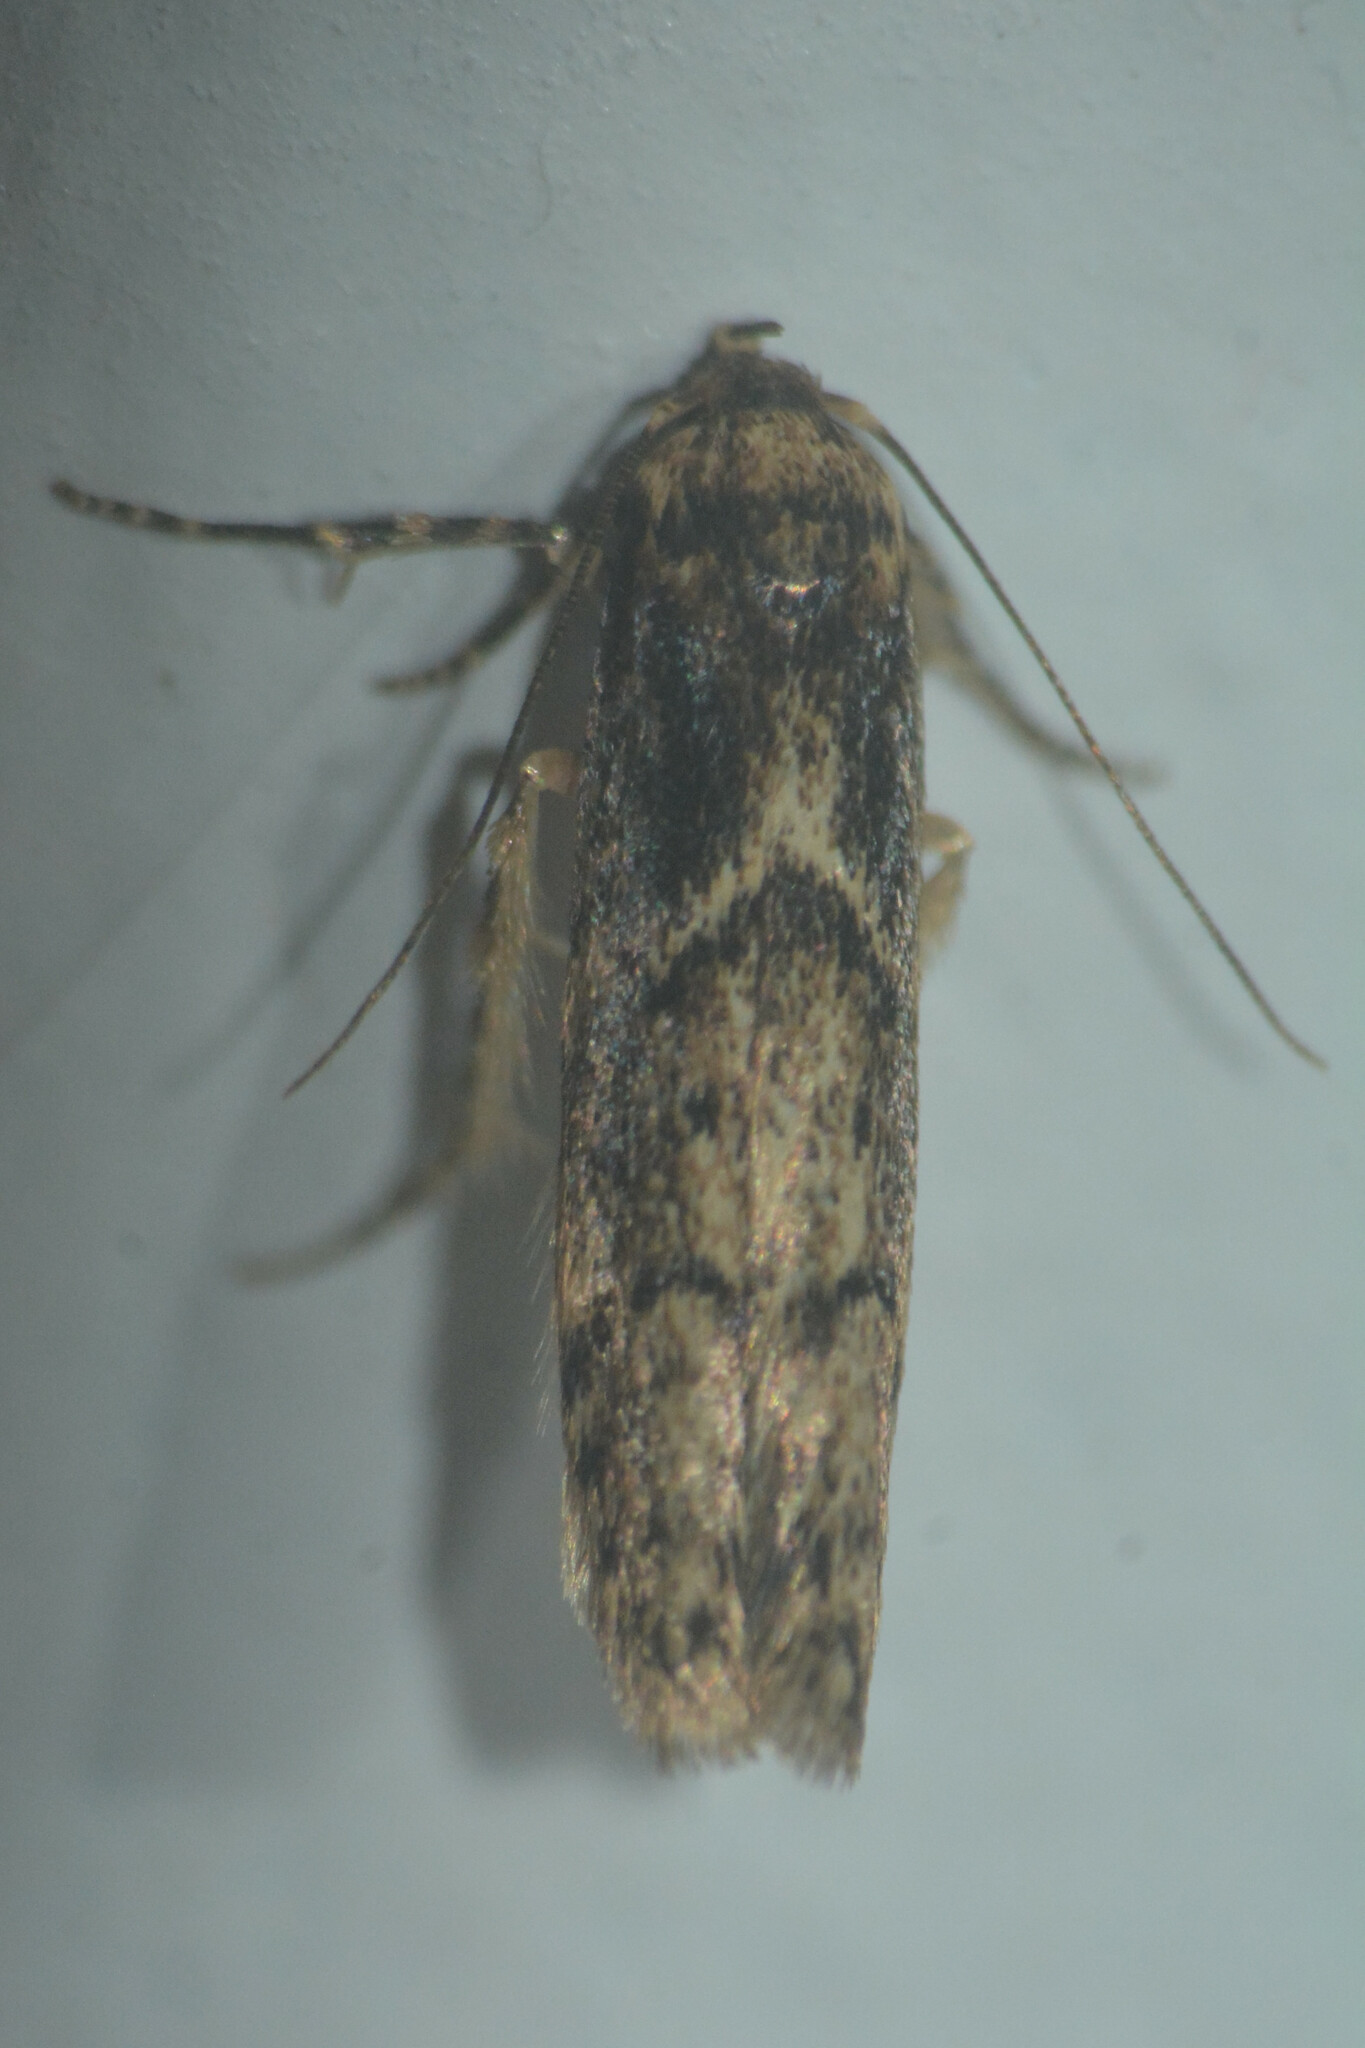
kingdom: Animalia
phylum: Arthropoda
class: Insecta
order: Lepidoptera
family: Blastobasidae
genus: Blastobasis
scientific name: Blastobasis adustella
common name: Dingy dowd
